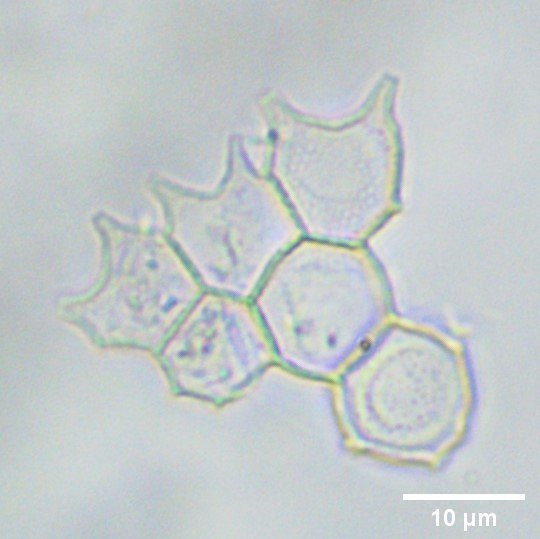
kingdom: Plantae
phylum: Chlorophyta
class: Chlorophyceae
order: Sphaeropleales
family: Hydrodictyaceae
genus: Pseudopediastrum
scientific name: Pseudopediastrum boryanum
